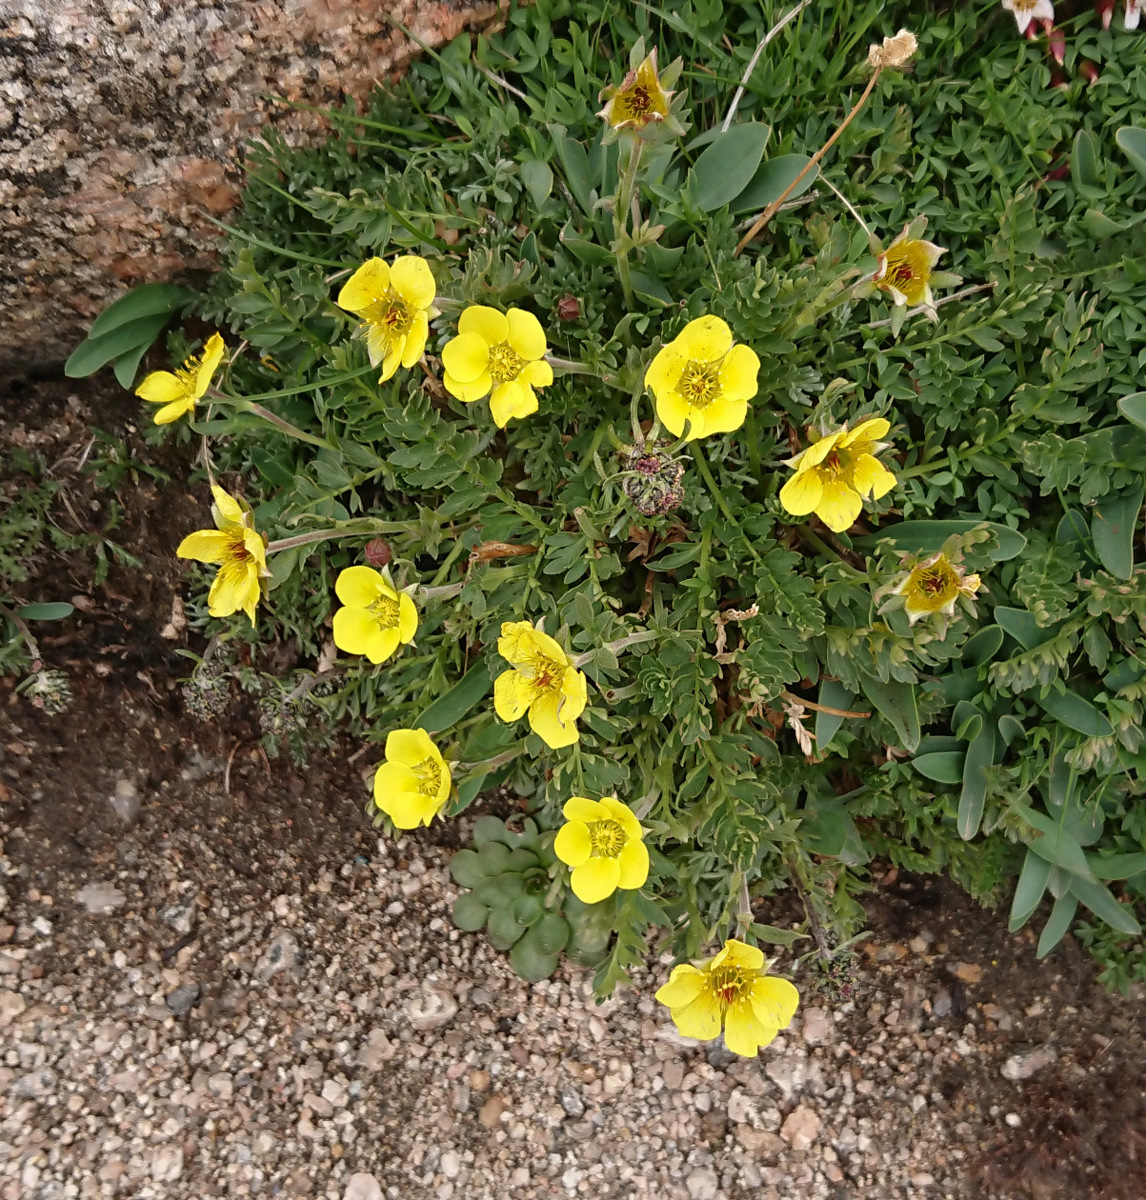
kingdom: Plantae
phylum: Tracheophyta
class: Magnoliopsida
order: Rosales
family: Rosaceae
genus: Geum
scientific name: Geum rossii
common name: Alpine avens
